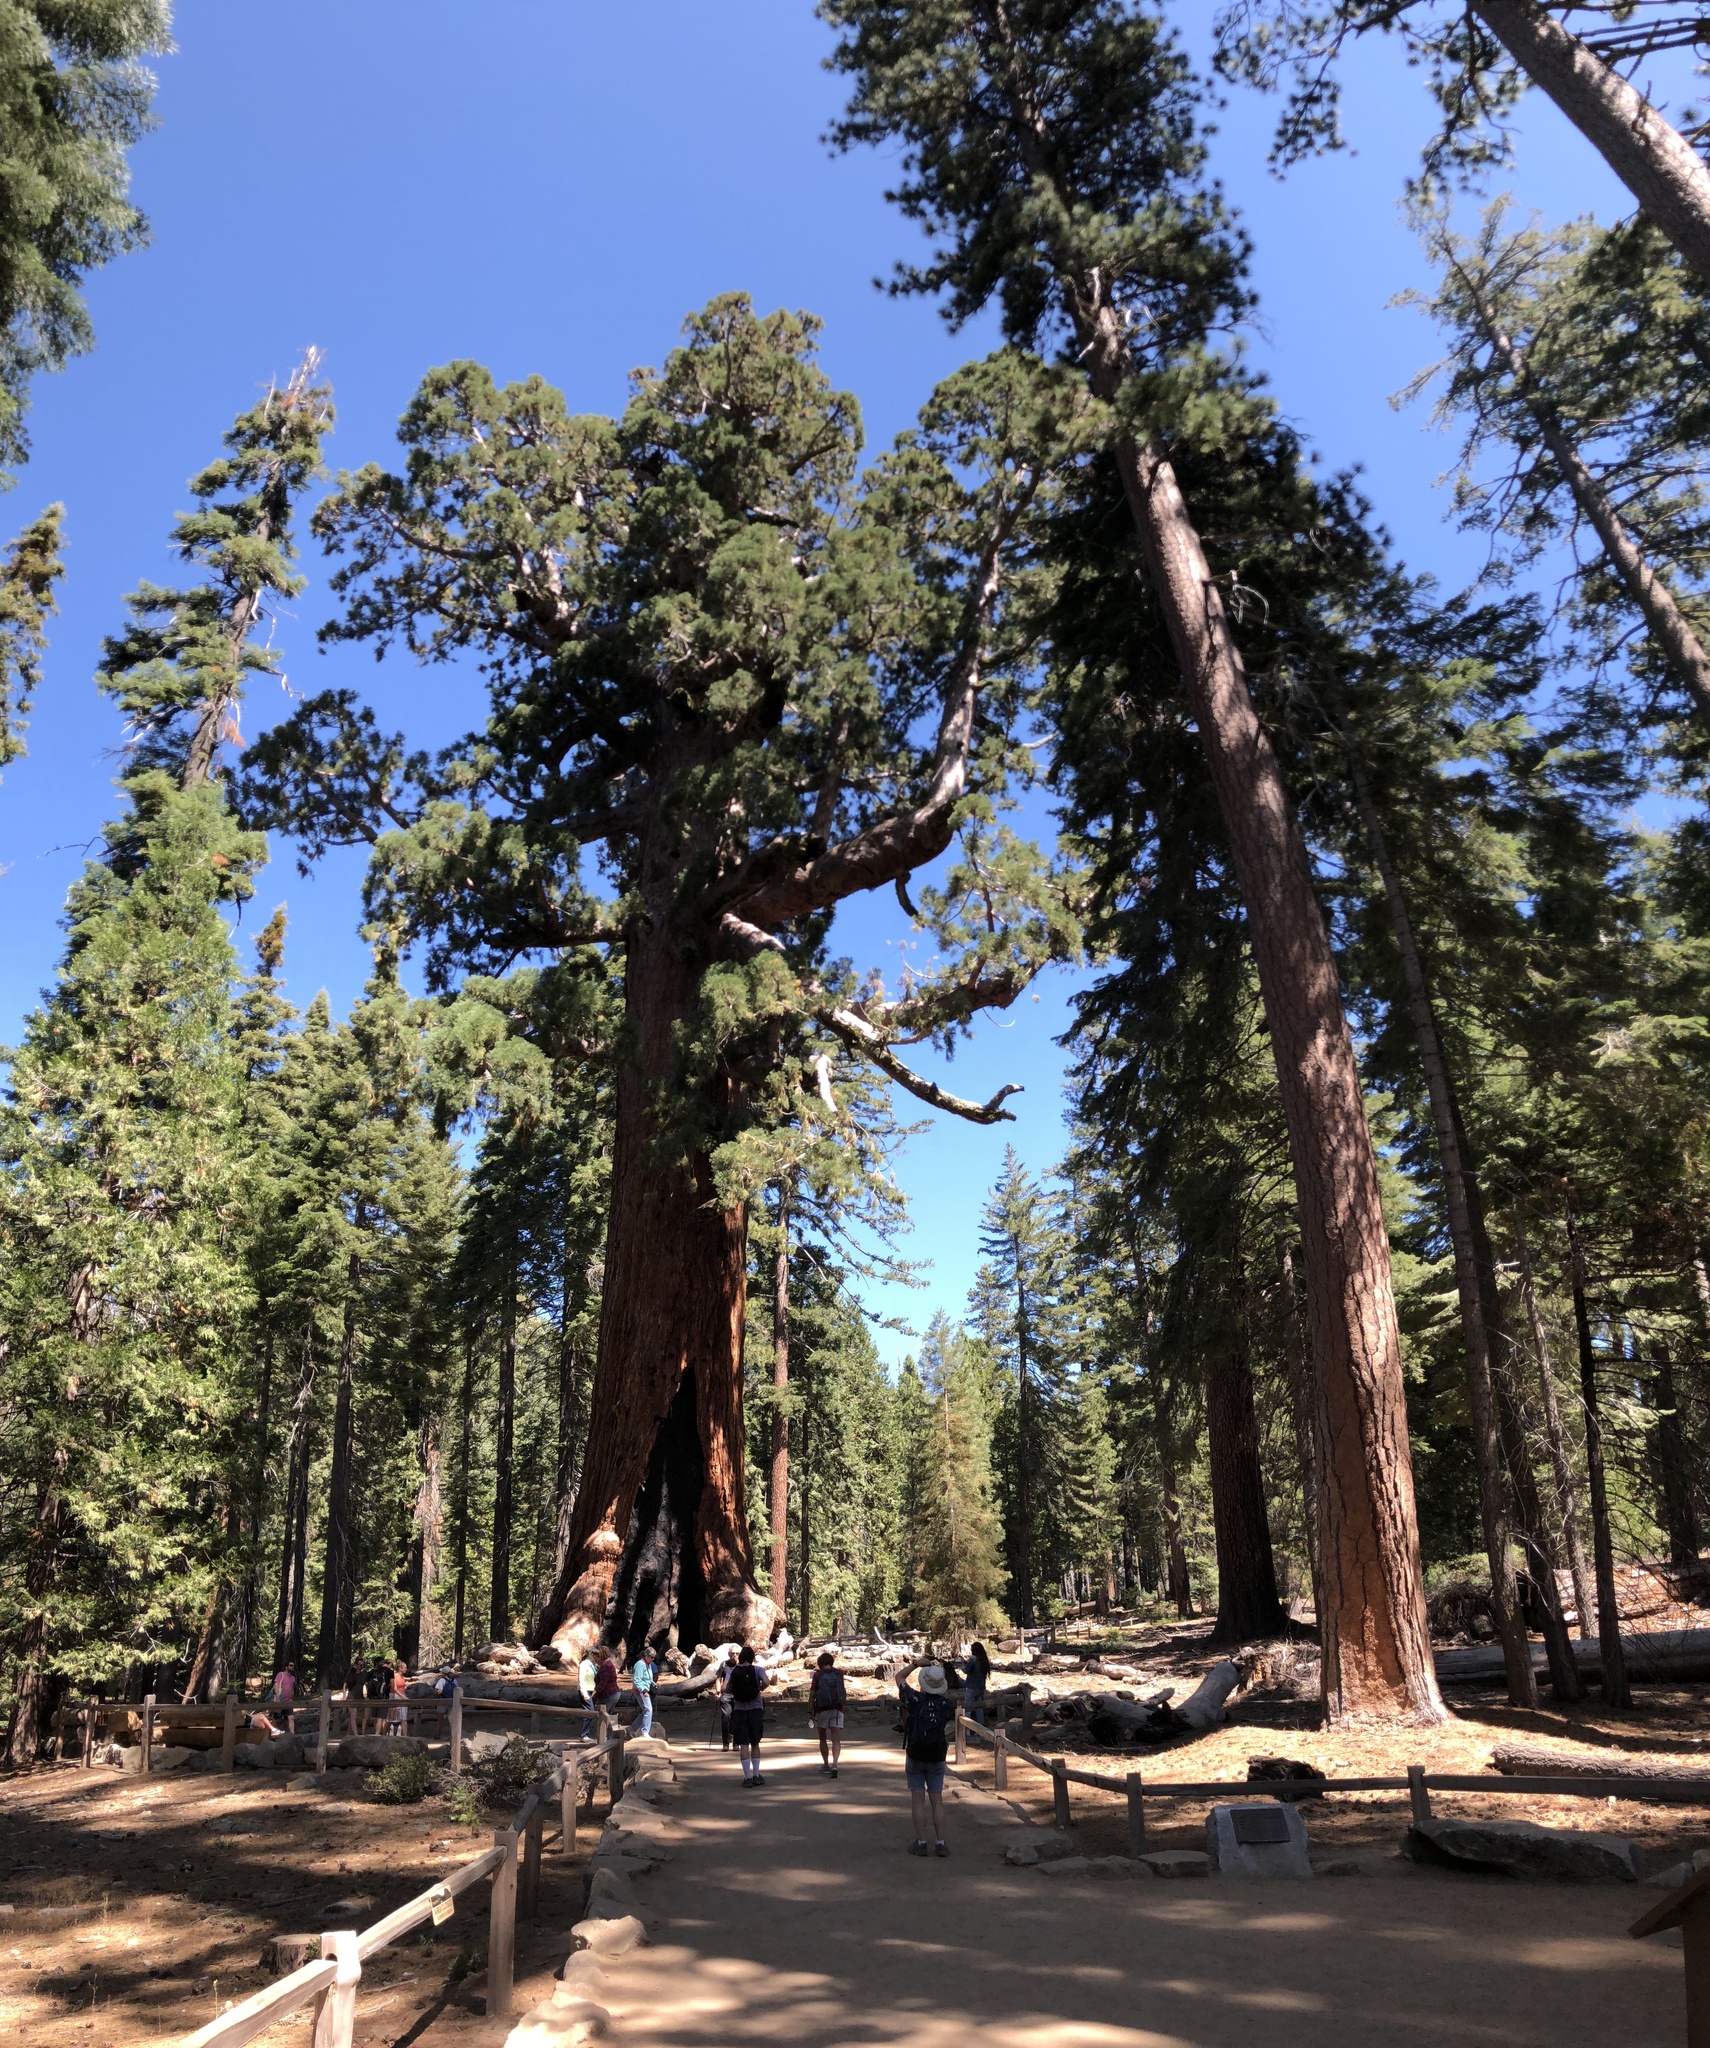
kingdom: Plantae
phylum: Tracheophyta
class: Pinopsida
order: Pinales
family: Cupressaceae
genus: Sequoiadendron
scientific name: Sequoiadendron giganteum
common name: Wellingtonia
